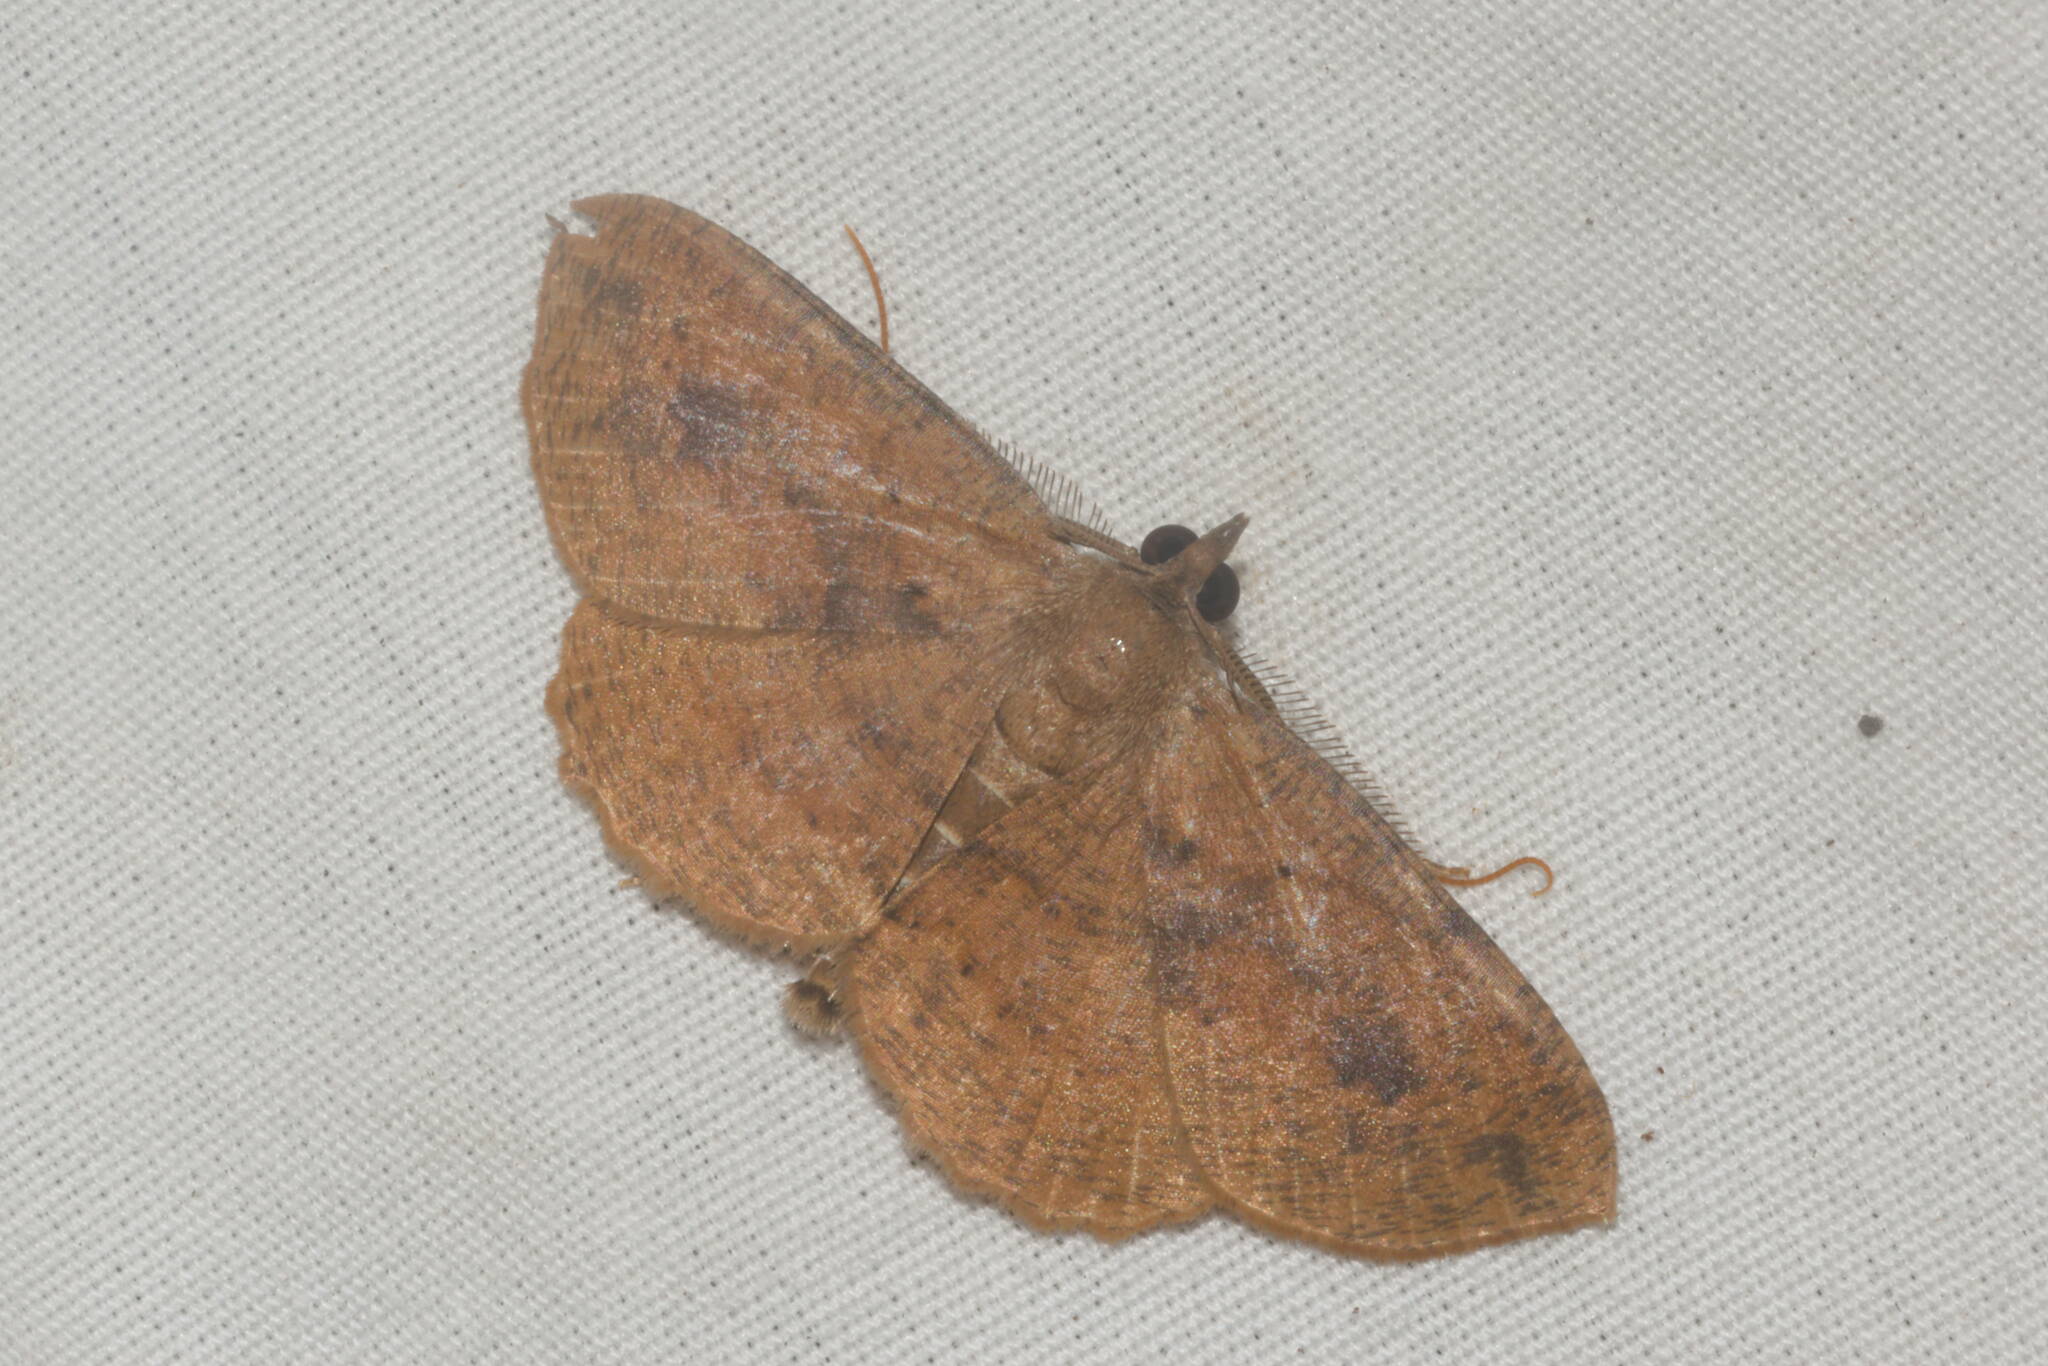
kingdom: Animalia
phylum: Arthropoda
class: Insecta
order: Lepidoptera
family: Geometridae
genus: Scotorythra
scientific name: Scotorythra corticea
